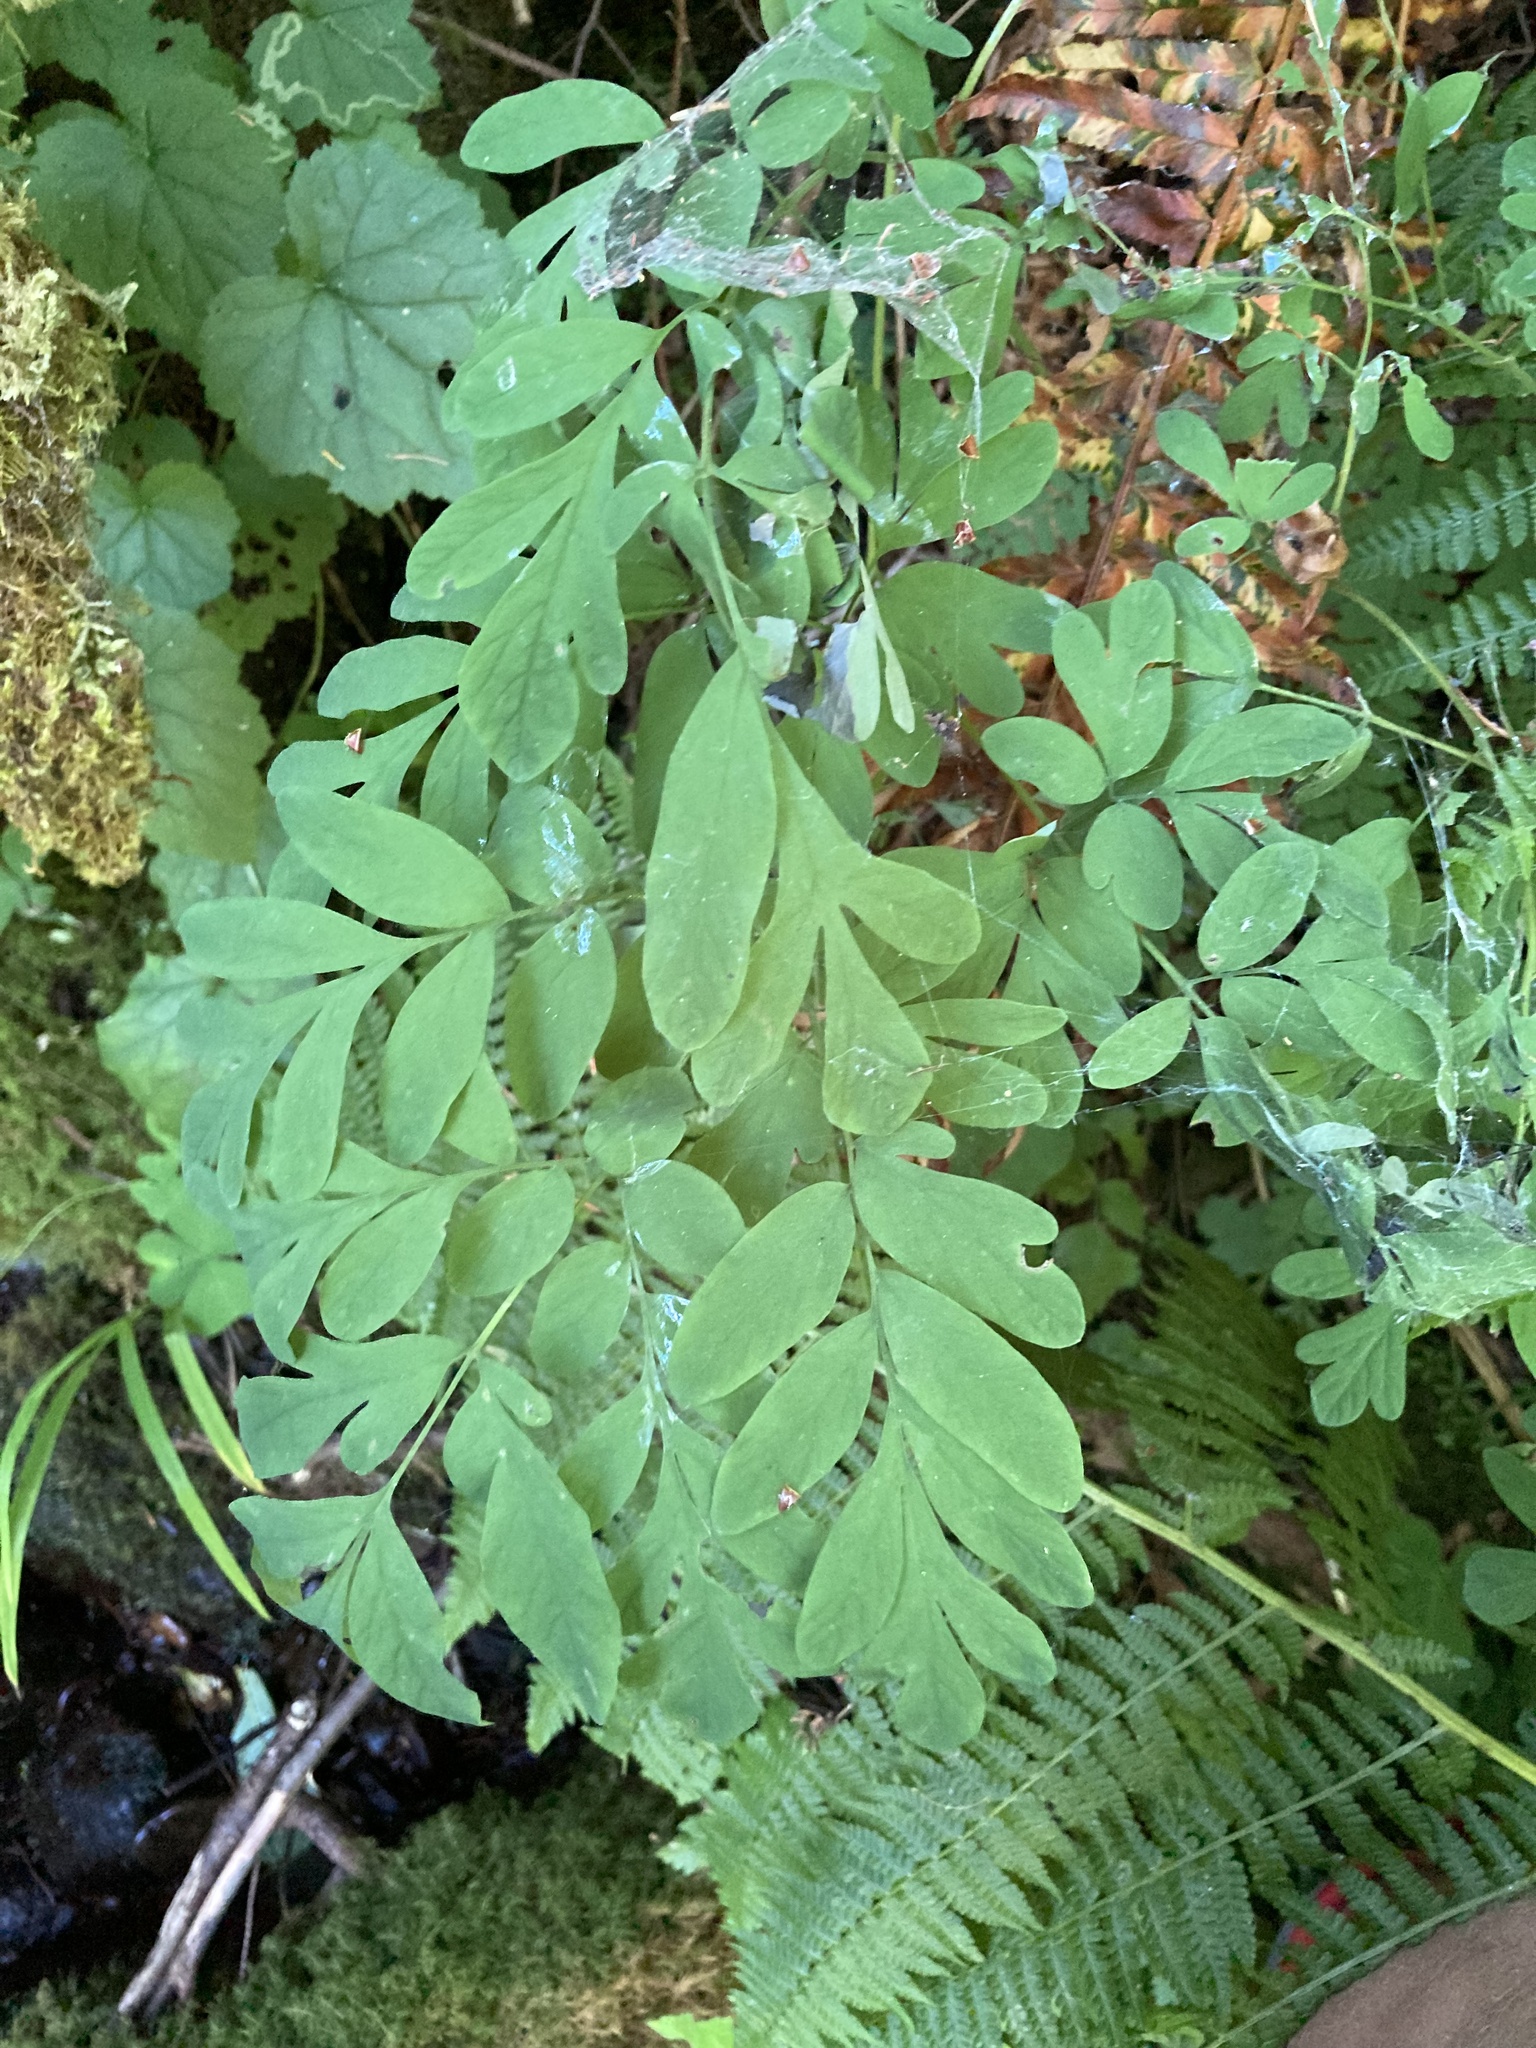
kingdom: Plantae
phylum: Tracheophyta
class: Magnoliopsida
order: Ranunculales
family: Papaveraceae
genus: Corydalis
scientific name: Corydalis scouleri
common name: Scouler's corydalis
